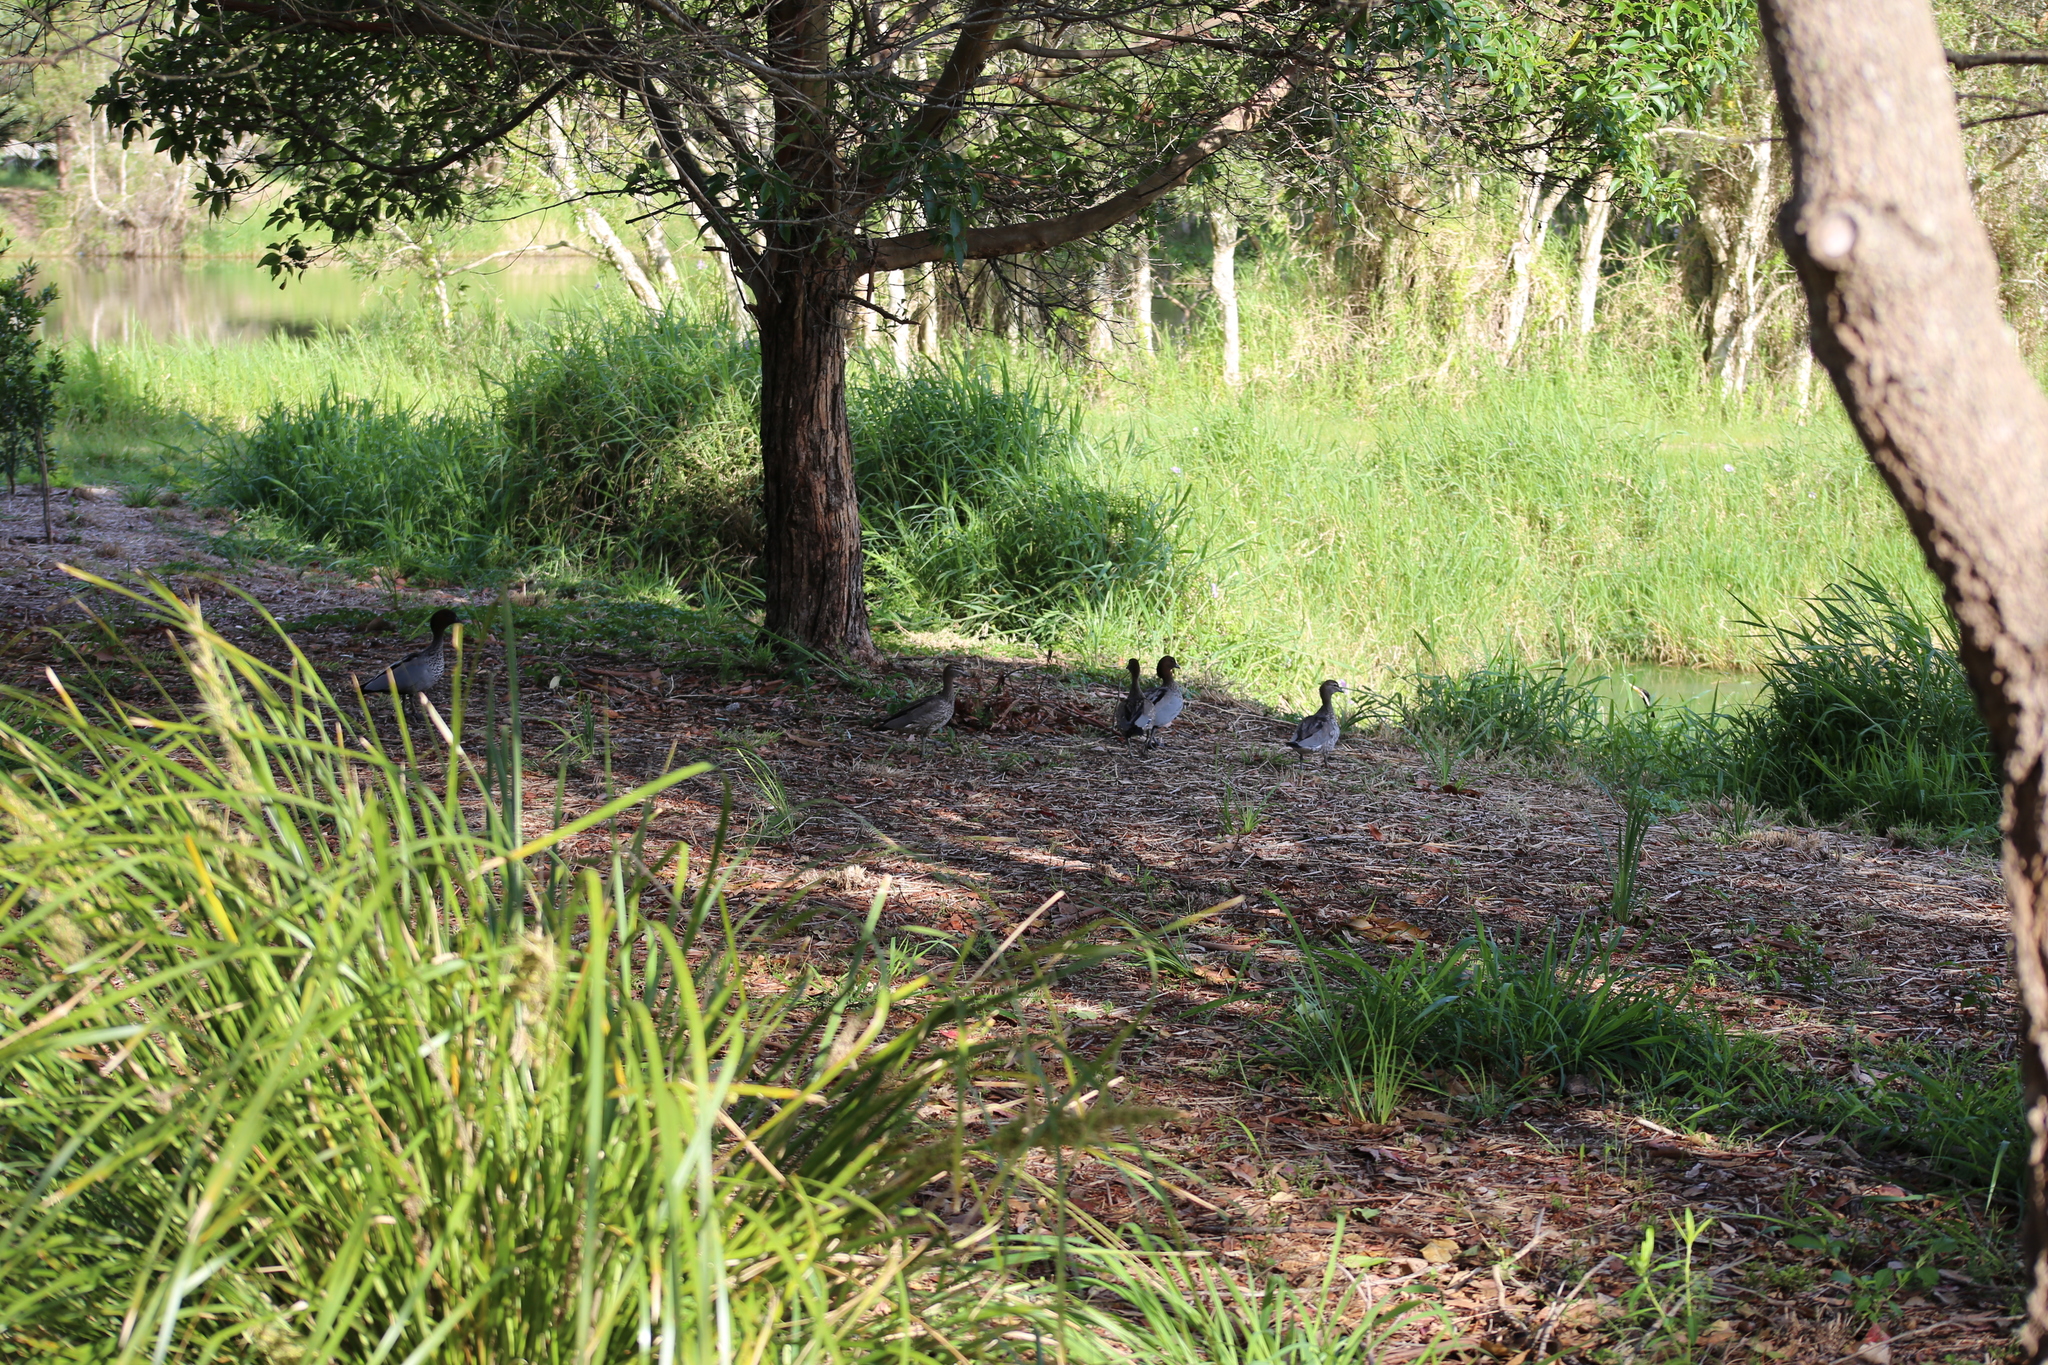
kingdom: Animalia
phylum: Chordata
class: Aves
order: Anseriformes
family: Anatidae
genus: Chenonetta
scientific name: Chenonetta jubata
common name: Maned duck
